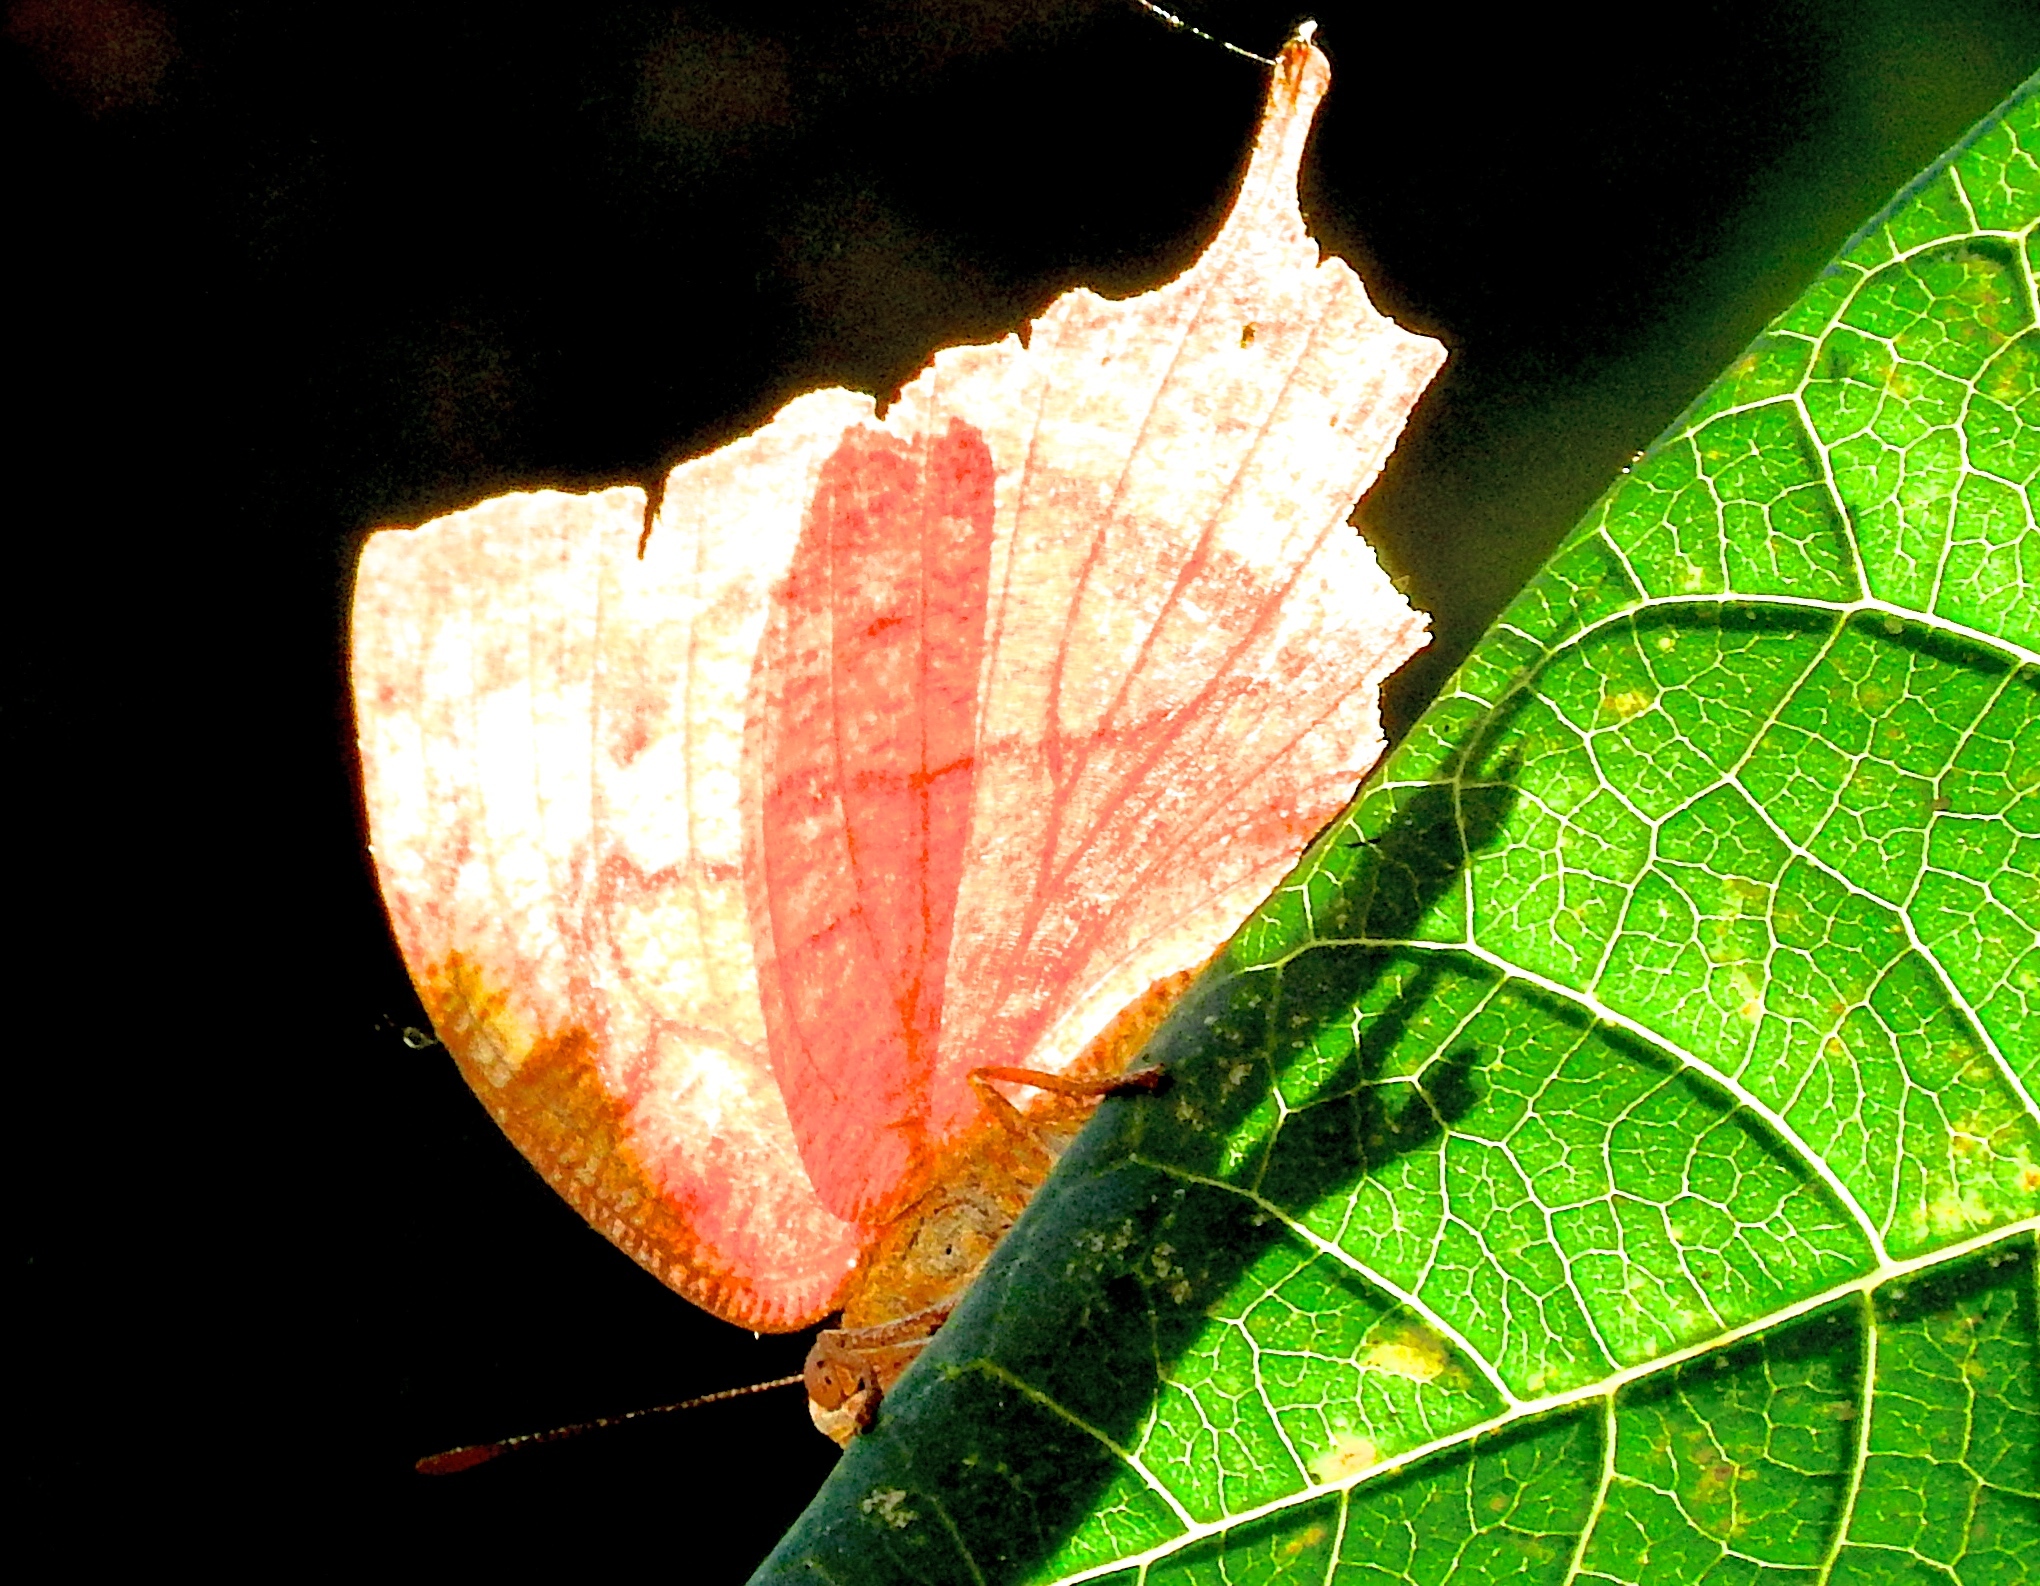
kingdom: Animalia
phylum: Arthropoda
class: Insecta
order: Lepidoptera
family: Nymphalidae
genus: Marpesia
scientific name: Marpesia petreus
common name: Red dagger wing
